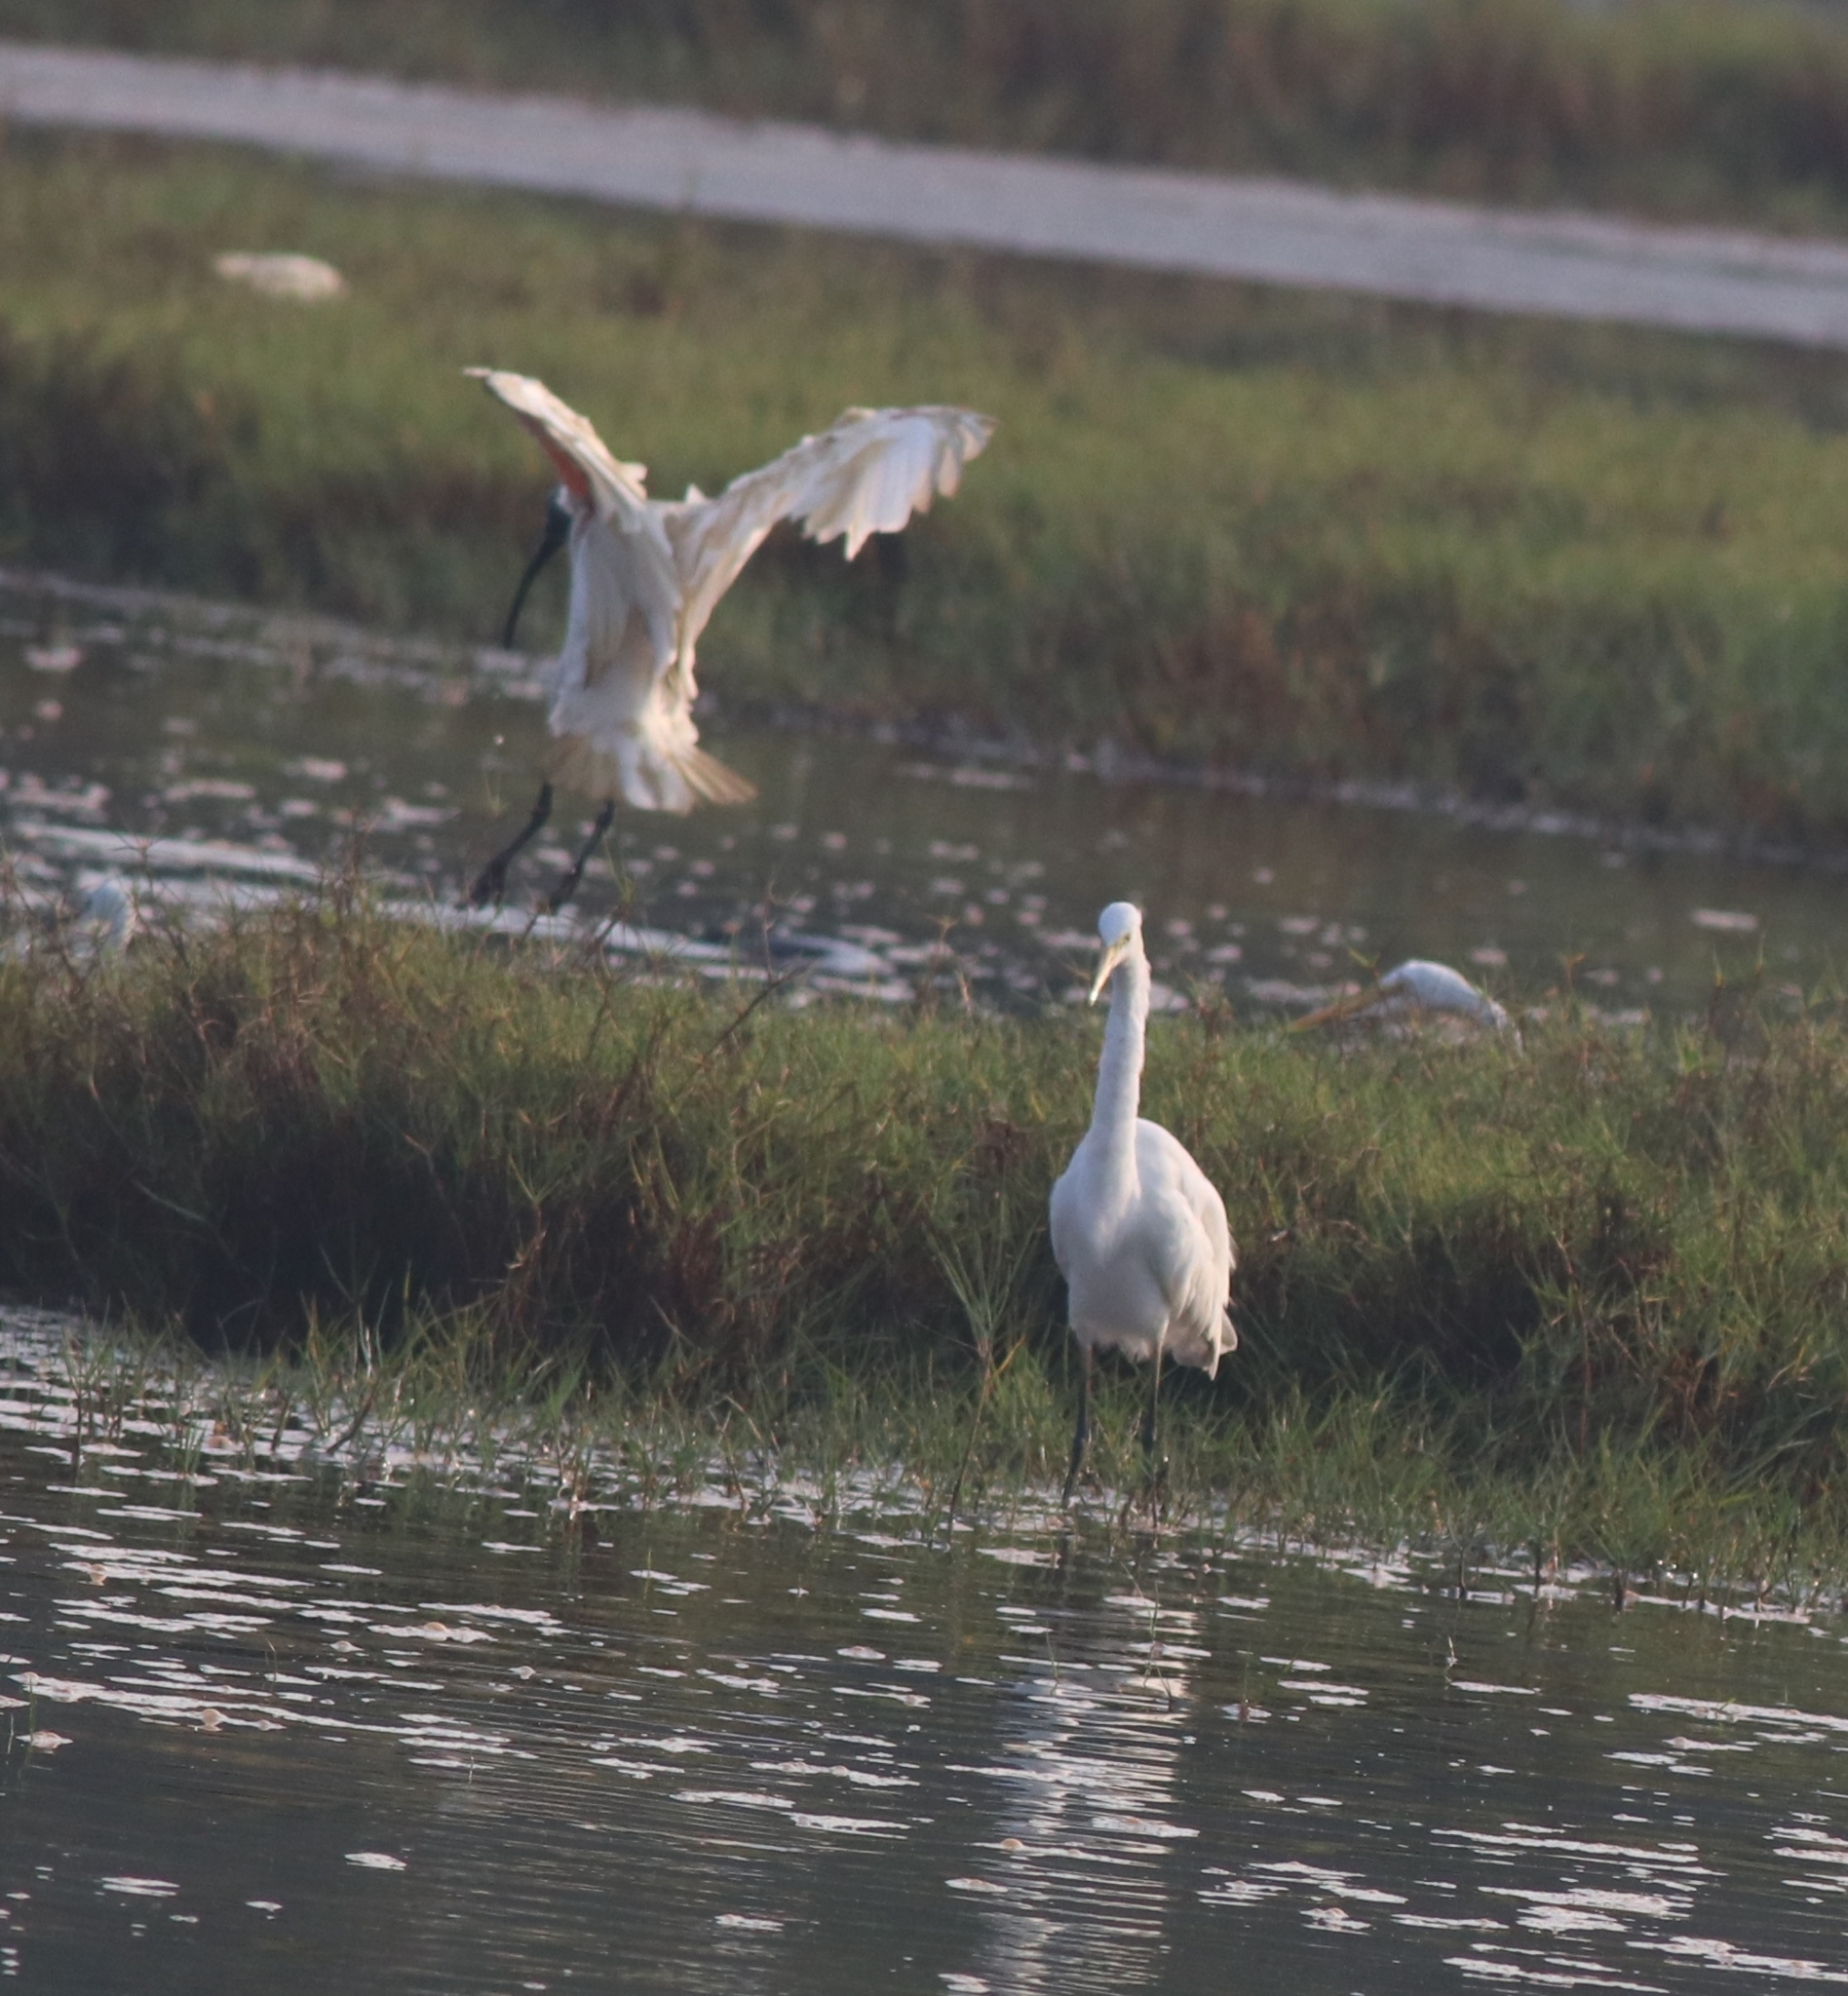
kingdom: Animalia
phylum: Chordata
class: Aves
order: Pelecaniformes
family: Ardeidae
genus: Ardea
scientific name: Ardea alba
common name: Great egret
